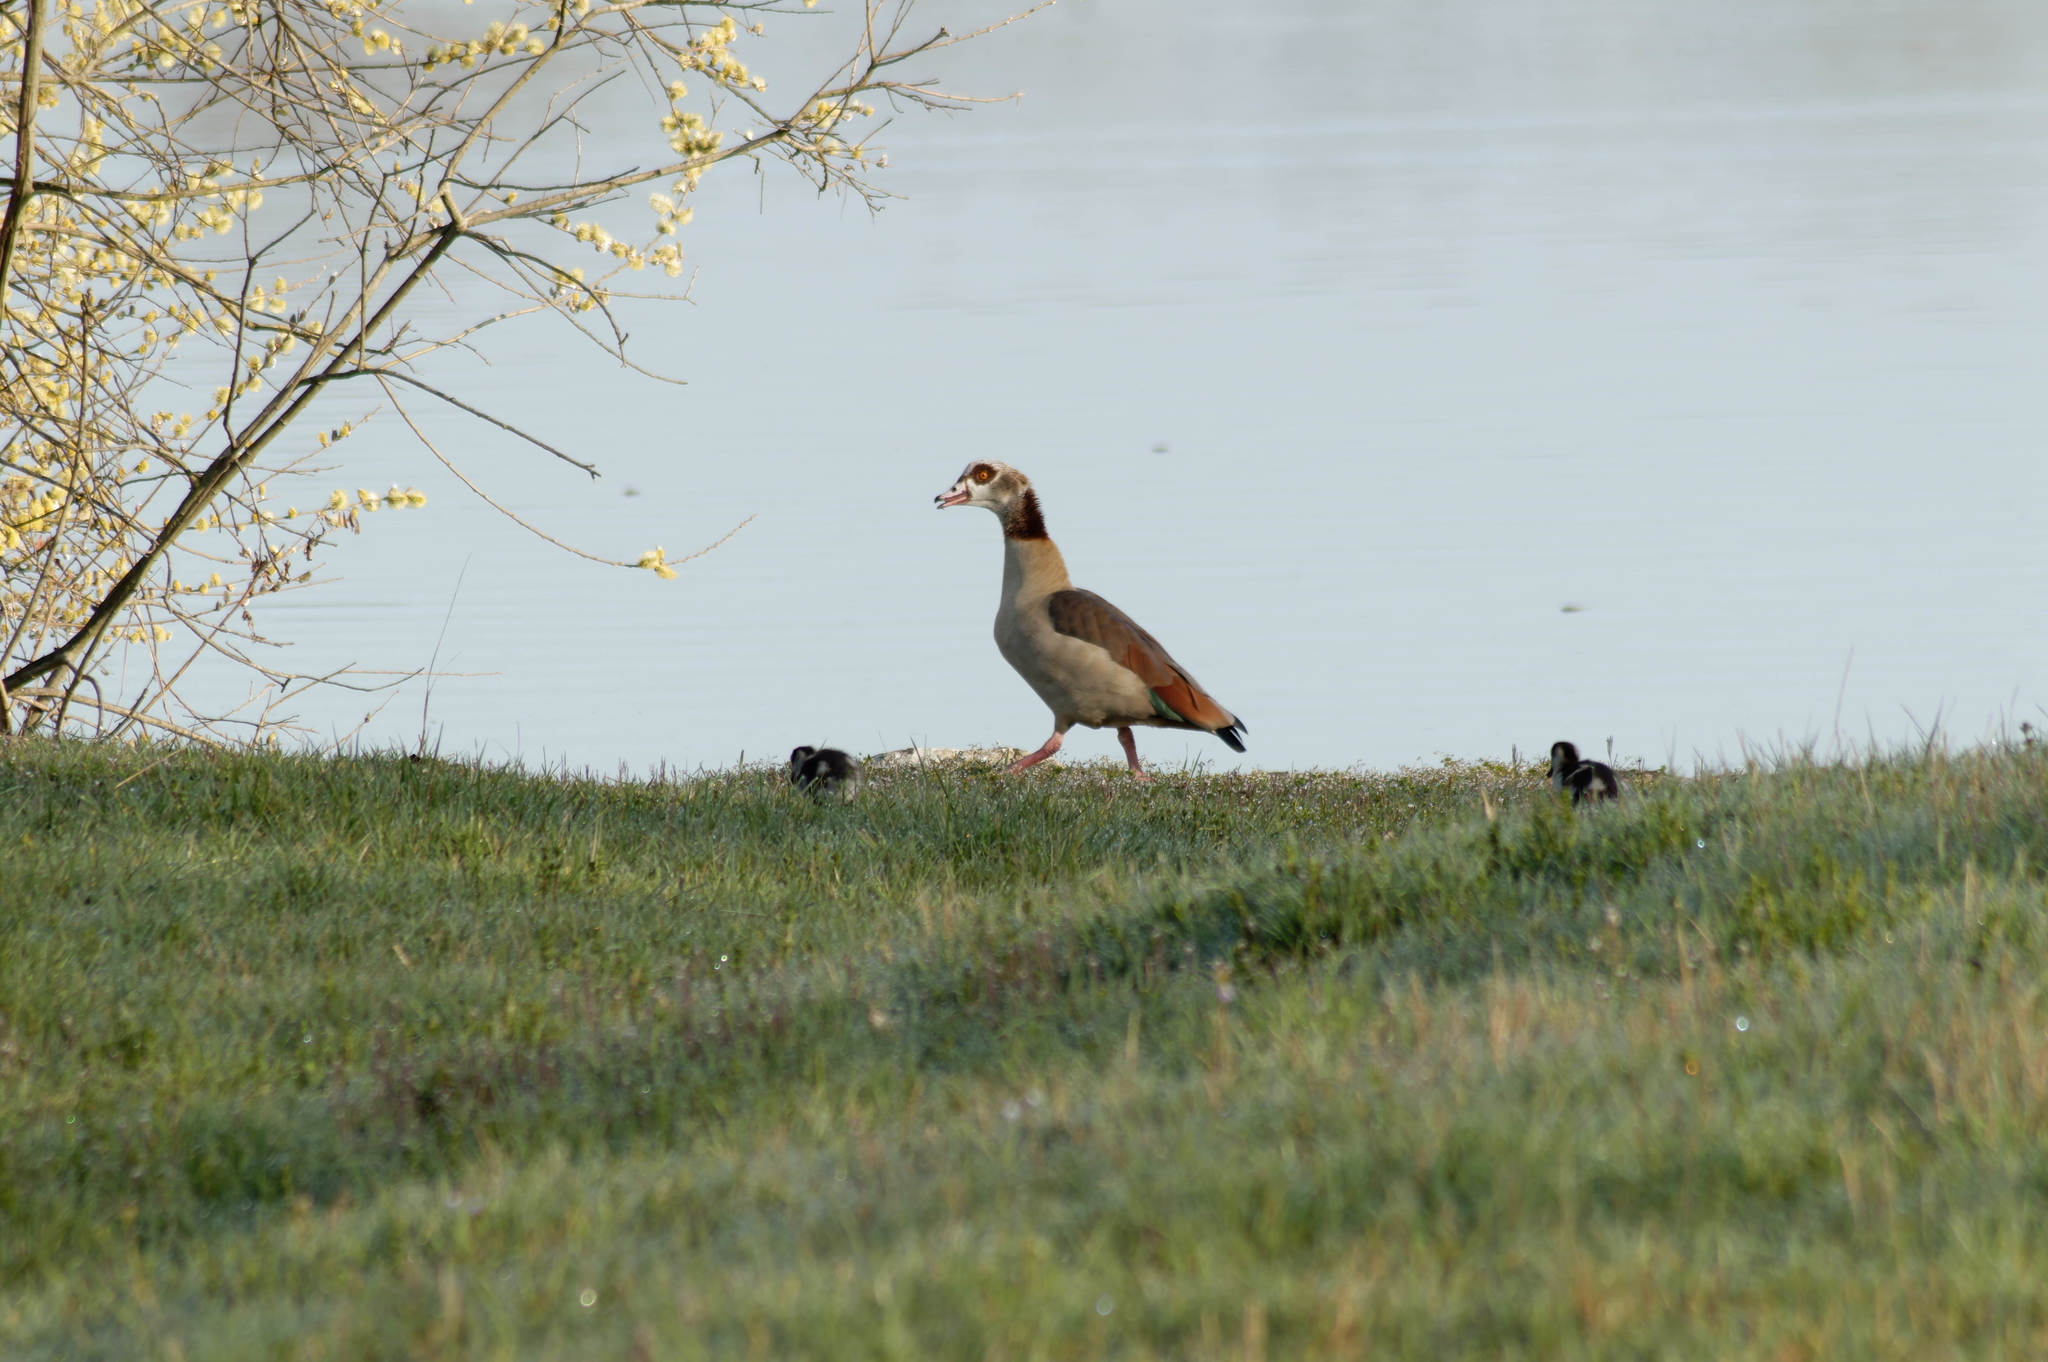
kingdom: Animalia
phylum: Chordata
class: Aves
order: Anseriformes
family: Anatidae
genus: Alopochen
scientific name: Alopochen aegyptiaca
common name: Egyptian goose
